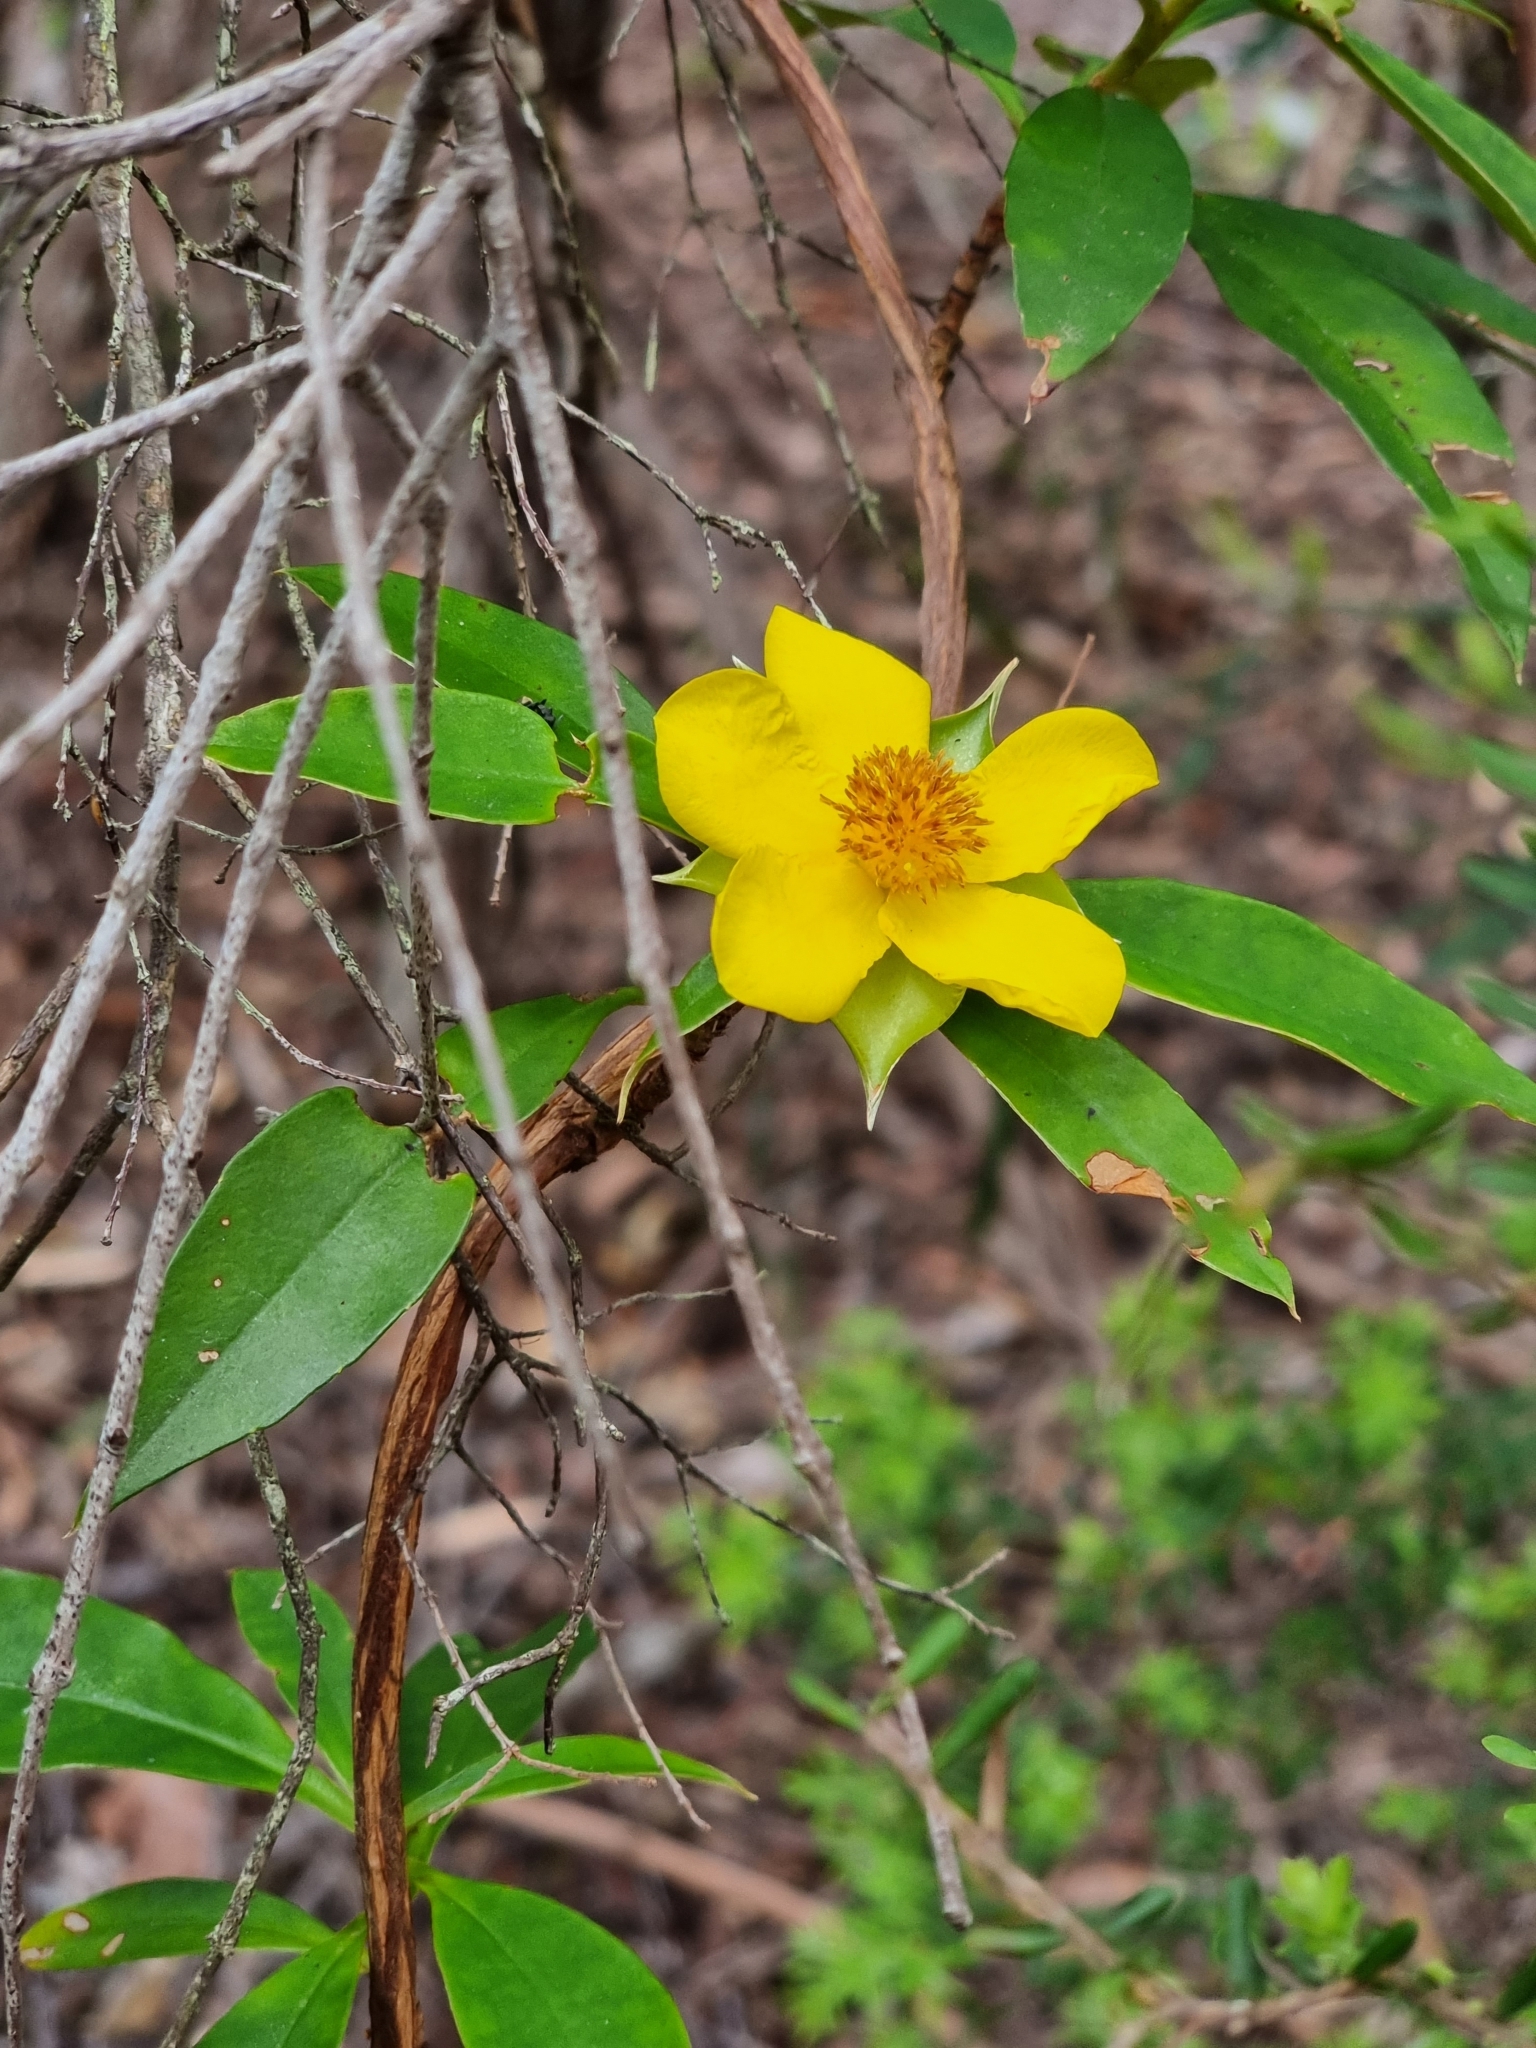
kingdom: Plantae
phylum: Tracheophyta
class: Magnoliopsida
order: Dilleniales
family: Dilleniaceae
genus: Hibbertia
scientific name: Hibbertia scandens
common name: Climbing guinea-flower
